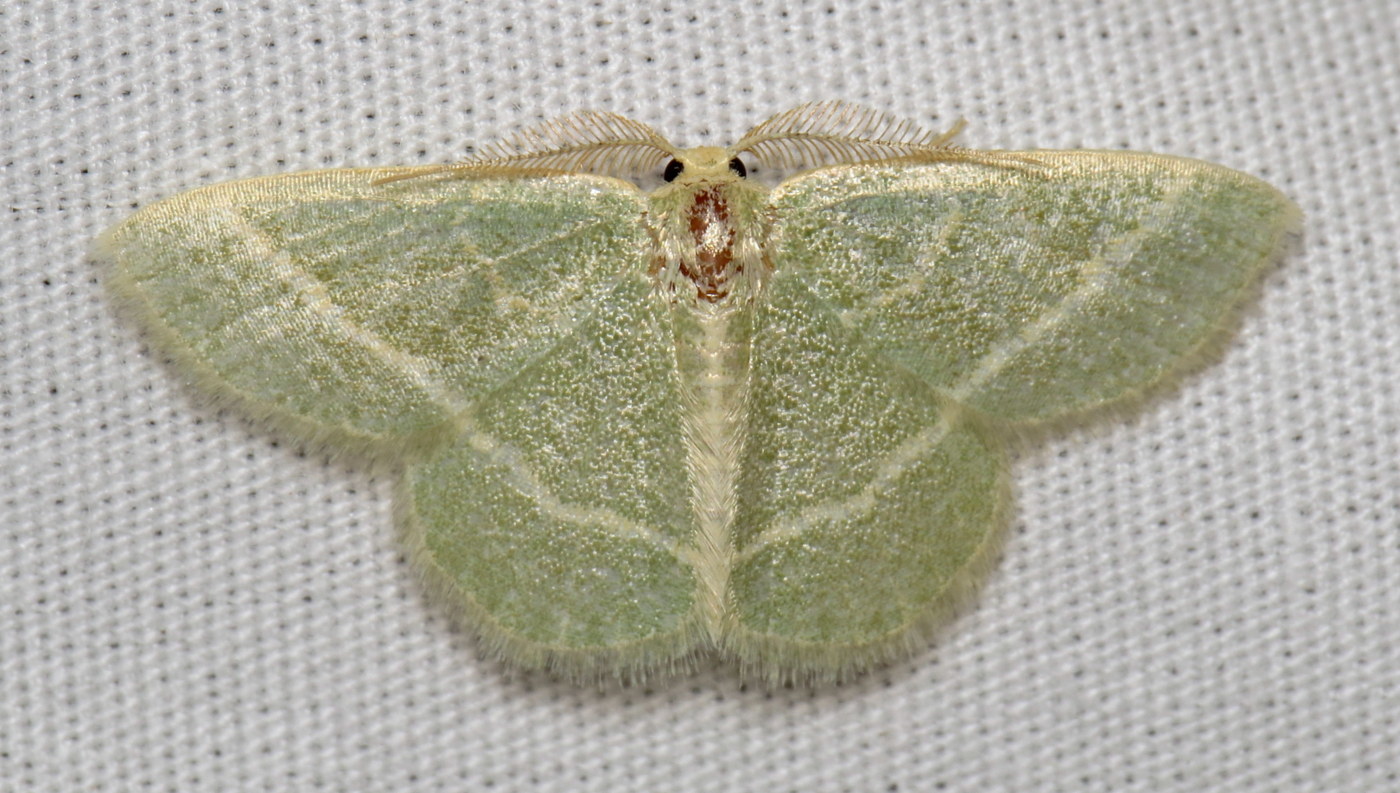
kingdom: Animalia
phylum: Arthropoda
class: Insecta
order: Lepidoptera
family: Geometridae
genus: Chlorochlamys
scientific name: Chlorochlamys chloroleucaria
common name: Blackberry looper
